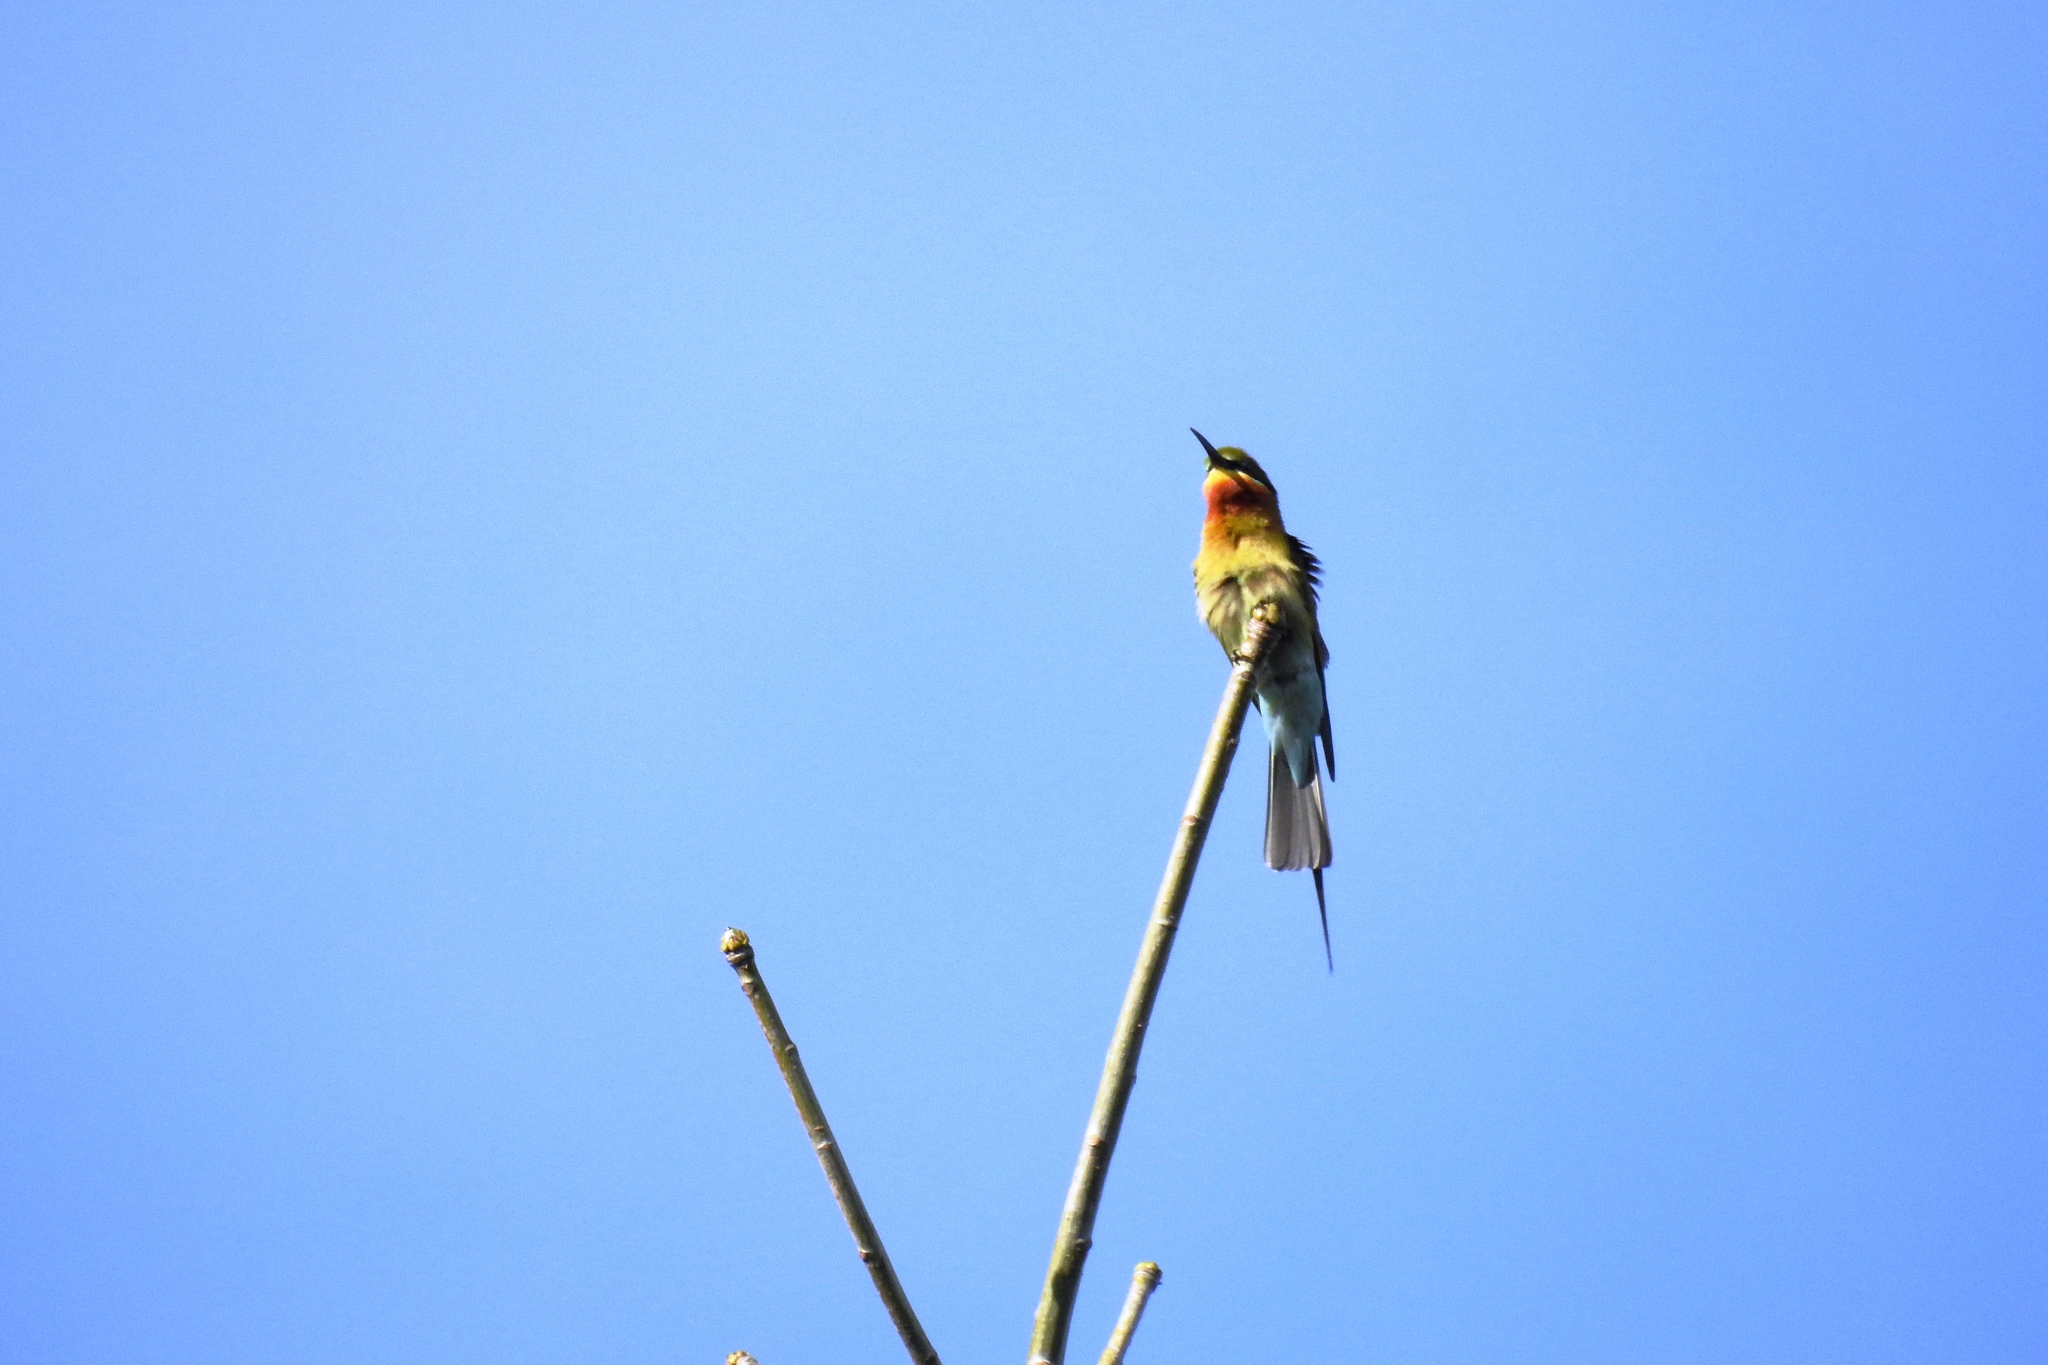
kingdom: Animalia
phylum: Chordata
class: Aves
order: Coraciiformes
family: Meropidae
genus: Merops
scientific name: Merops philippinus
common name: Blue-tailed bee-eater
